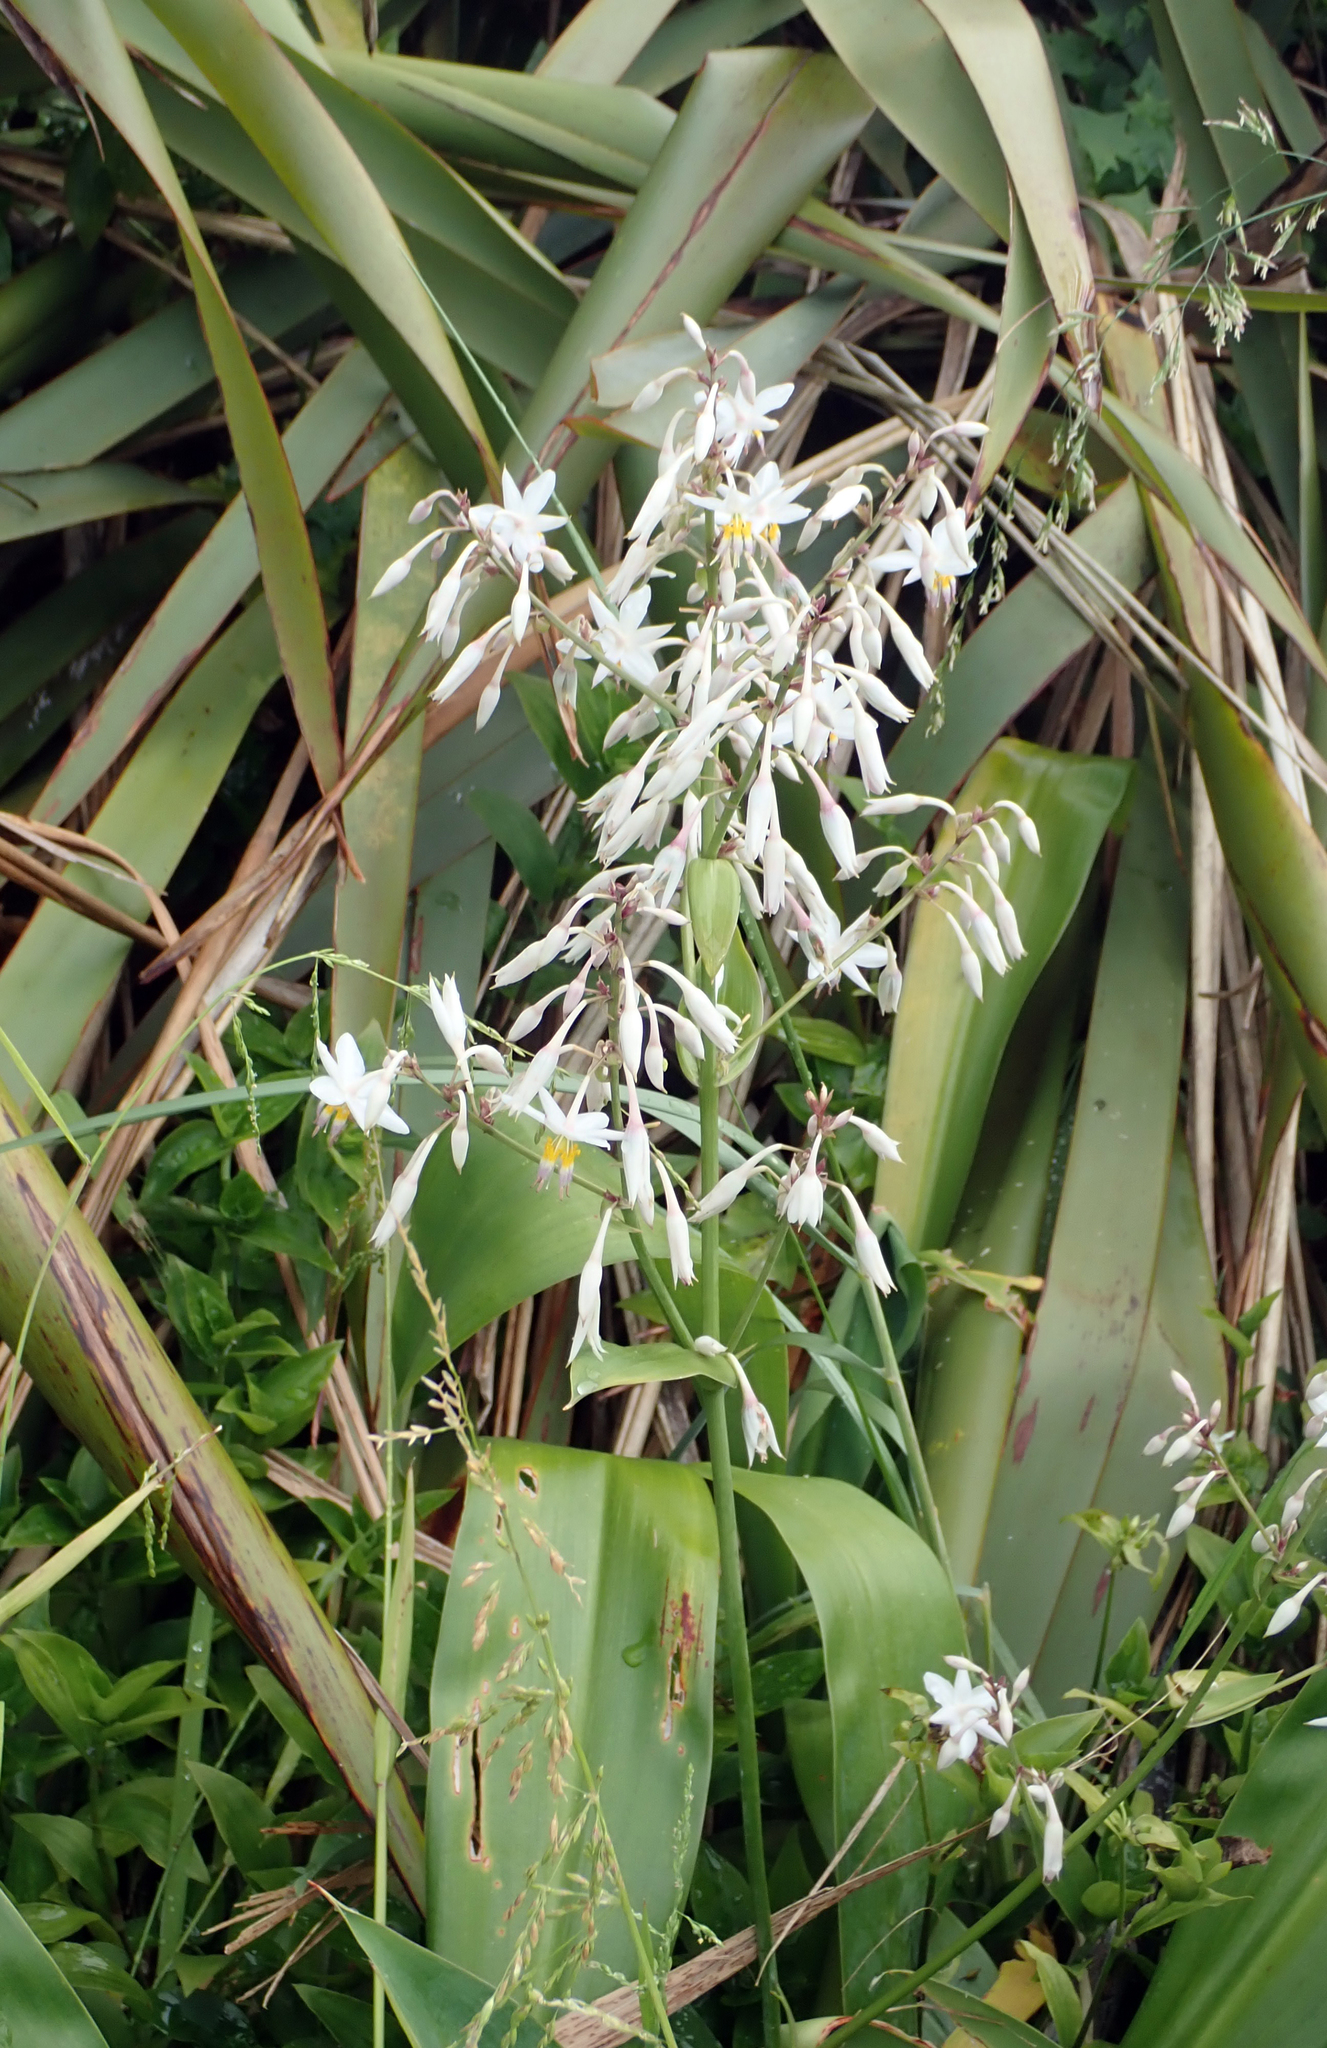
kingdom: Plantae
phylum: Tracheophyta
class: Liliopsida
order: Asparagales
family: Asparagaceae
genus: Arthropodium
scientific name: Arthropodium cirratum
